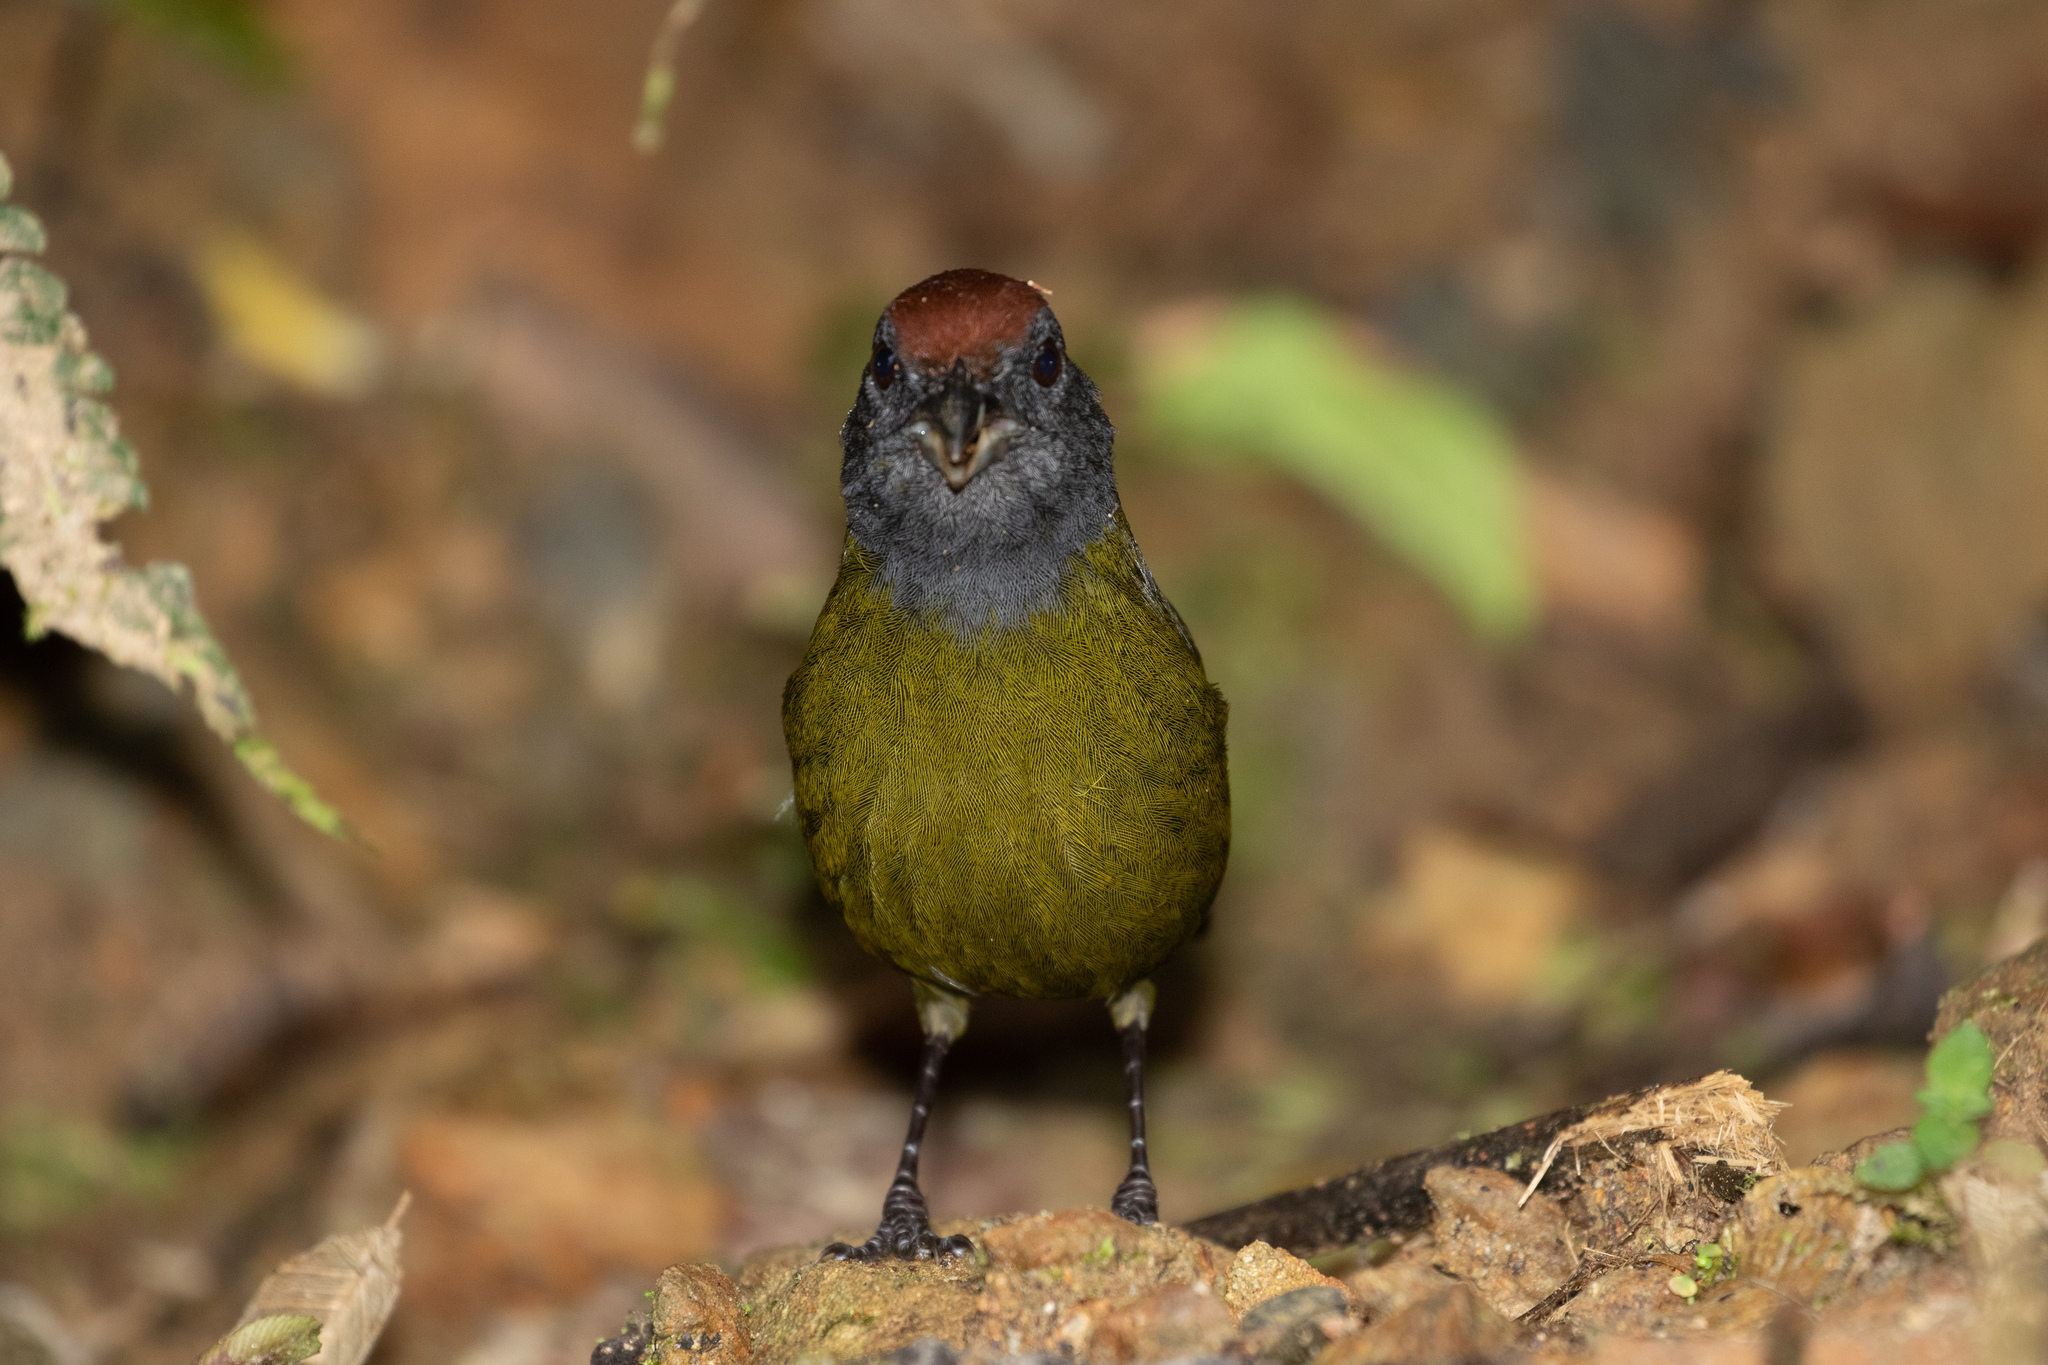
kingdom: Animalia
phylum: Chordata
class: Aves
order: Passeriformes
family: Passerellidae
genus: Arremon
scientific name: Arremon castaneiceps
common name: Olive finch
